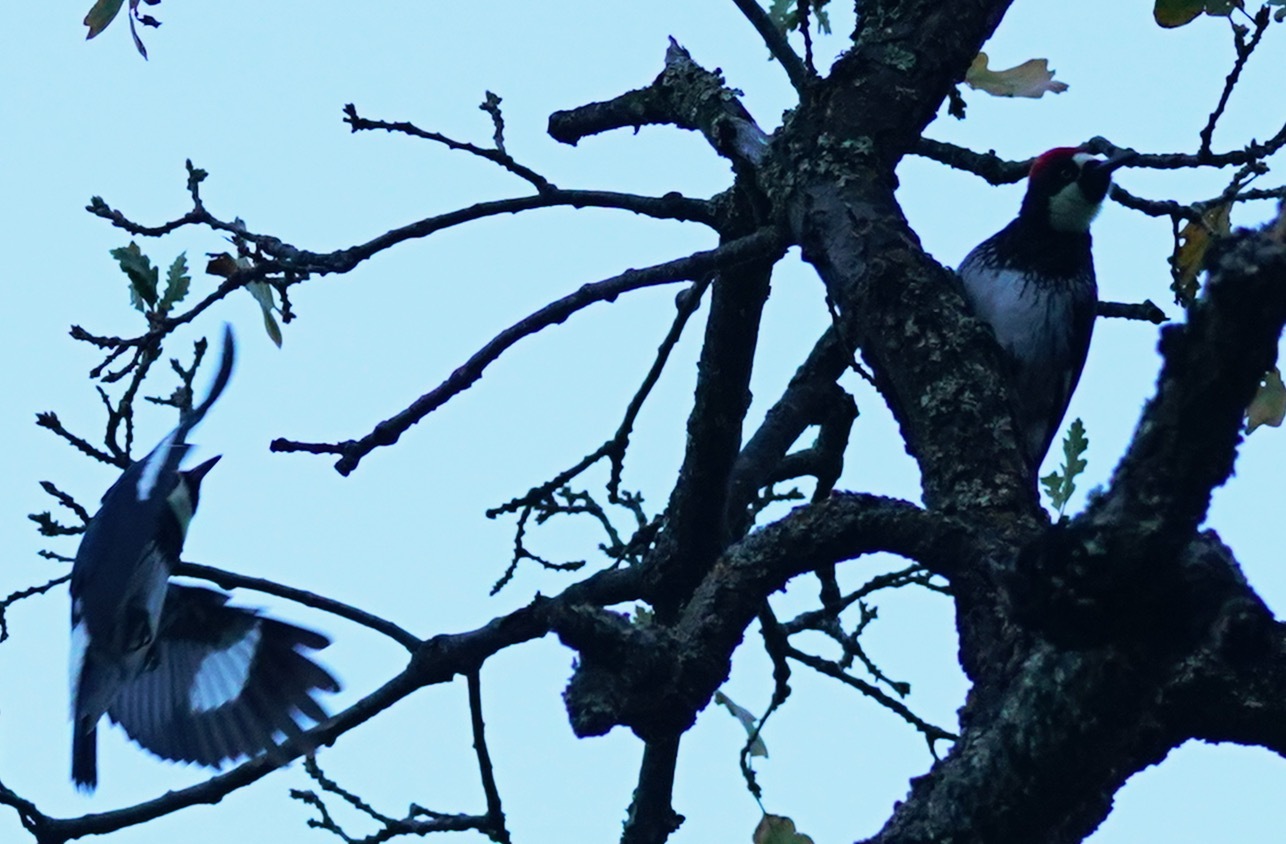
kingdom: Animalia
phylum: Chordata
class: Aves
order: Piciformes
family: Picidae
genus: Melanerpes
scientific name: Melanerpes formicivorus
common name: Acorn woodpecker
